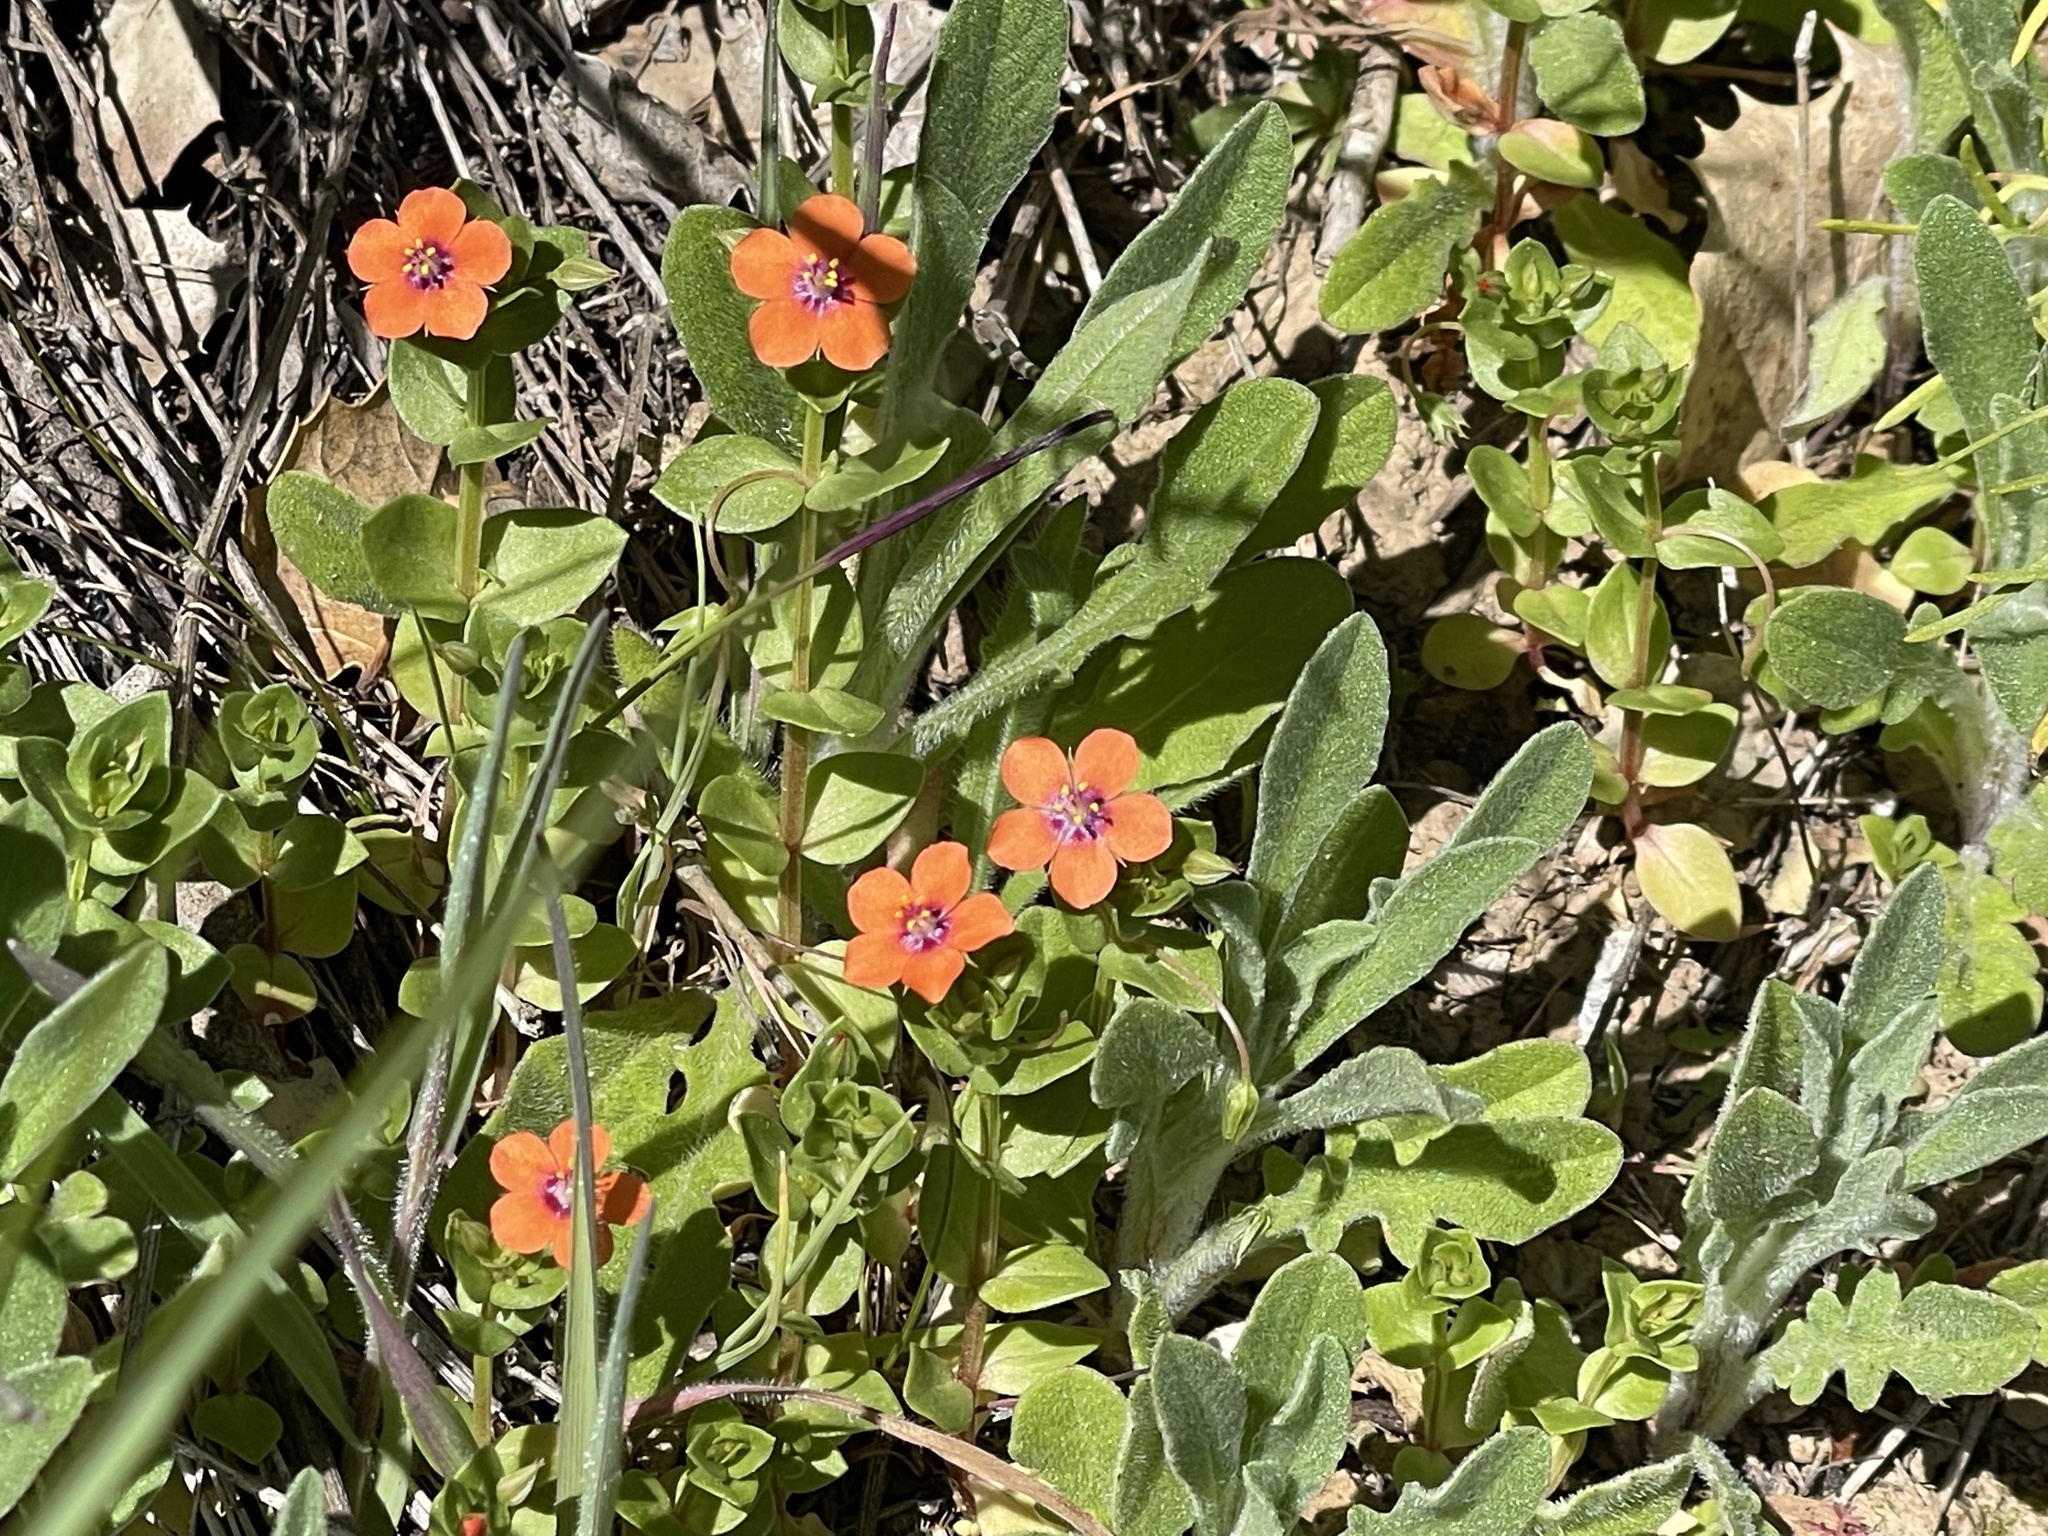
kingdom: Plantae
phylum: Tracheophyta
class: Magnoliopsida
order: Ericales
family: Primulaceae
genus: Lysimachia
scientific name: Lysimachia arvensis
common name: Scarlet pimpernel
